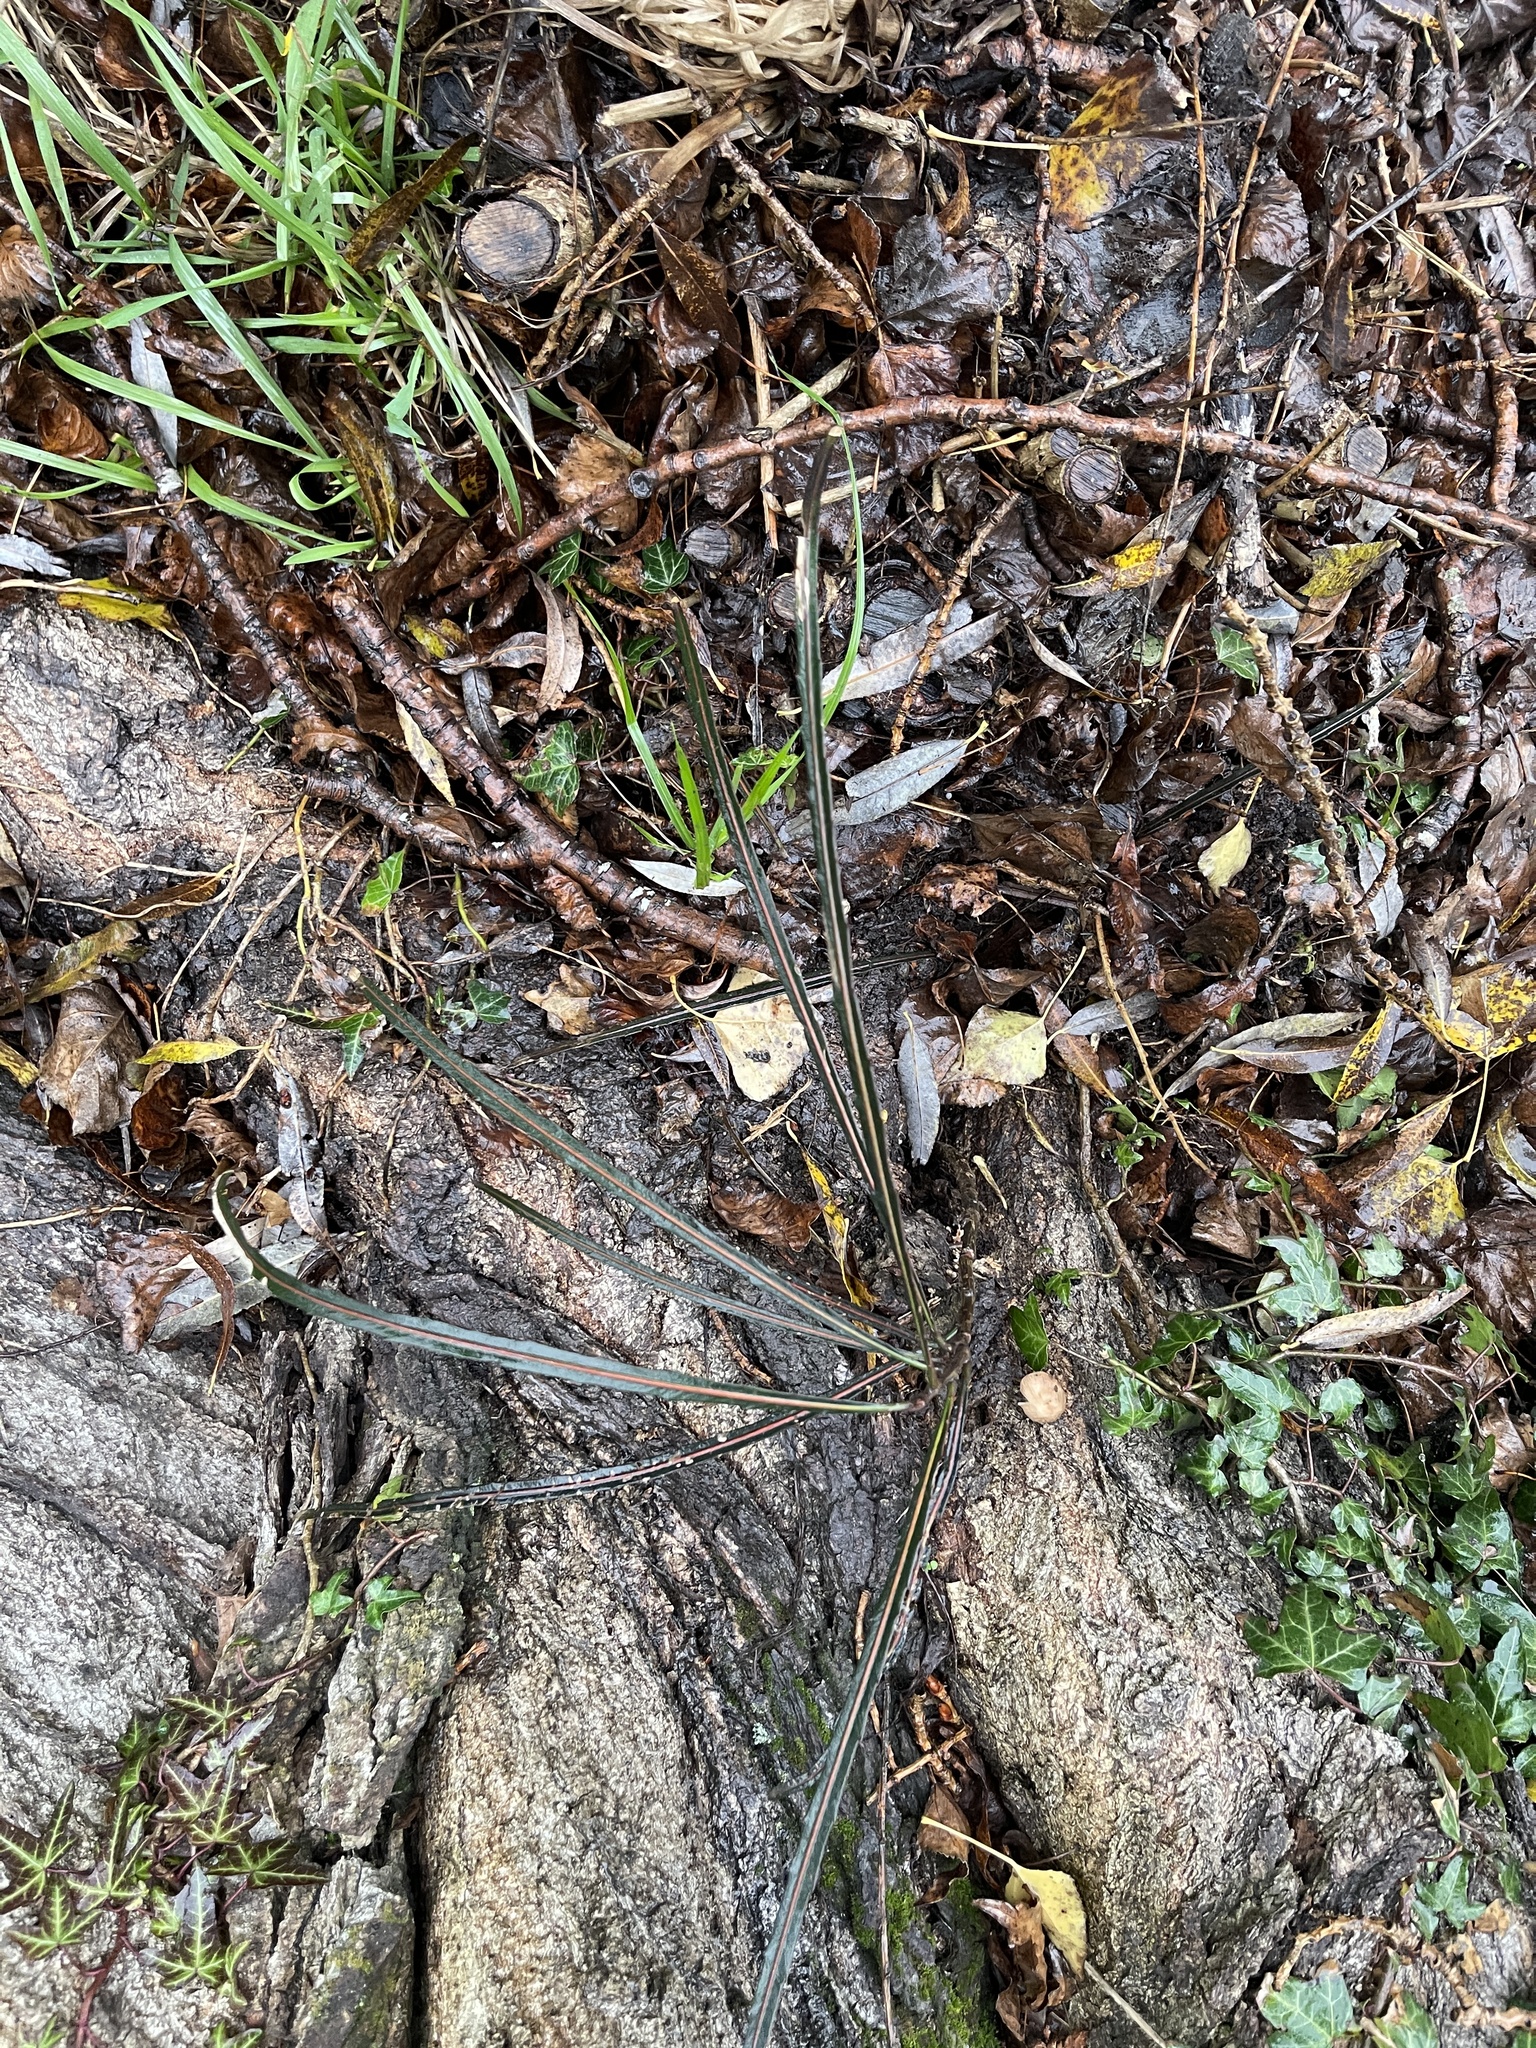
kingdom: Plantae
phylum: Tracheophyta
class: Magnoliopsida
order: Apiales
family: Araliaceae
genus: Pseudopanax
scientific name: Pseudopanax crassifolius
